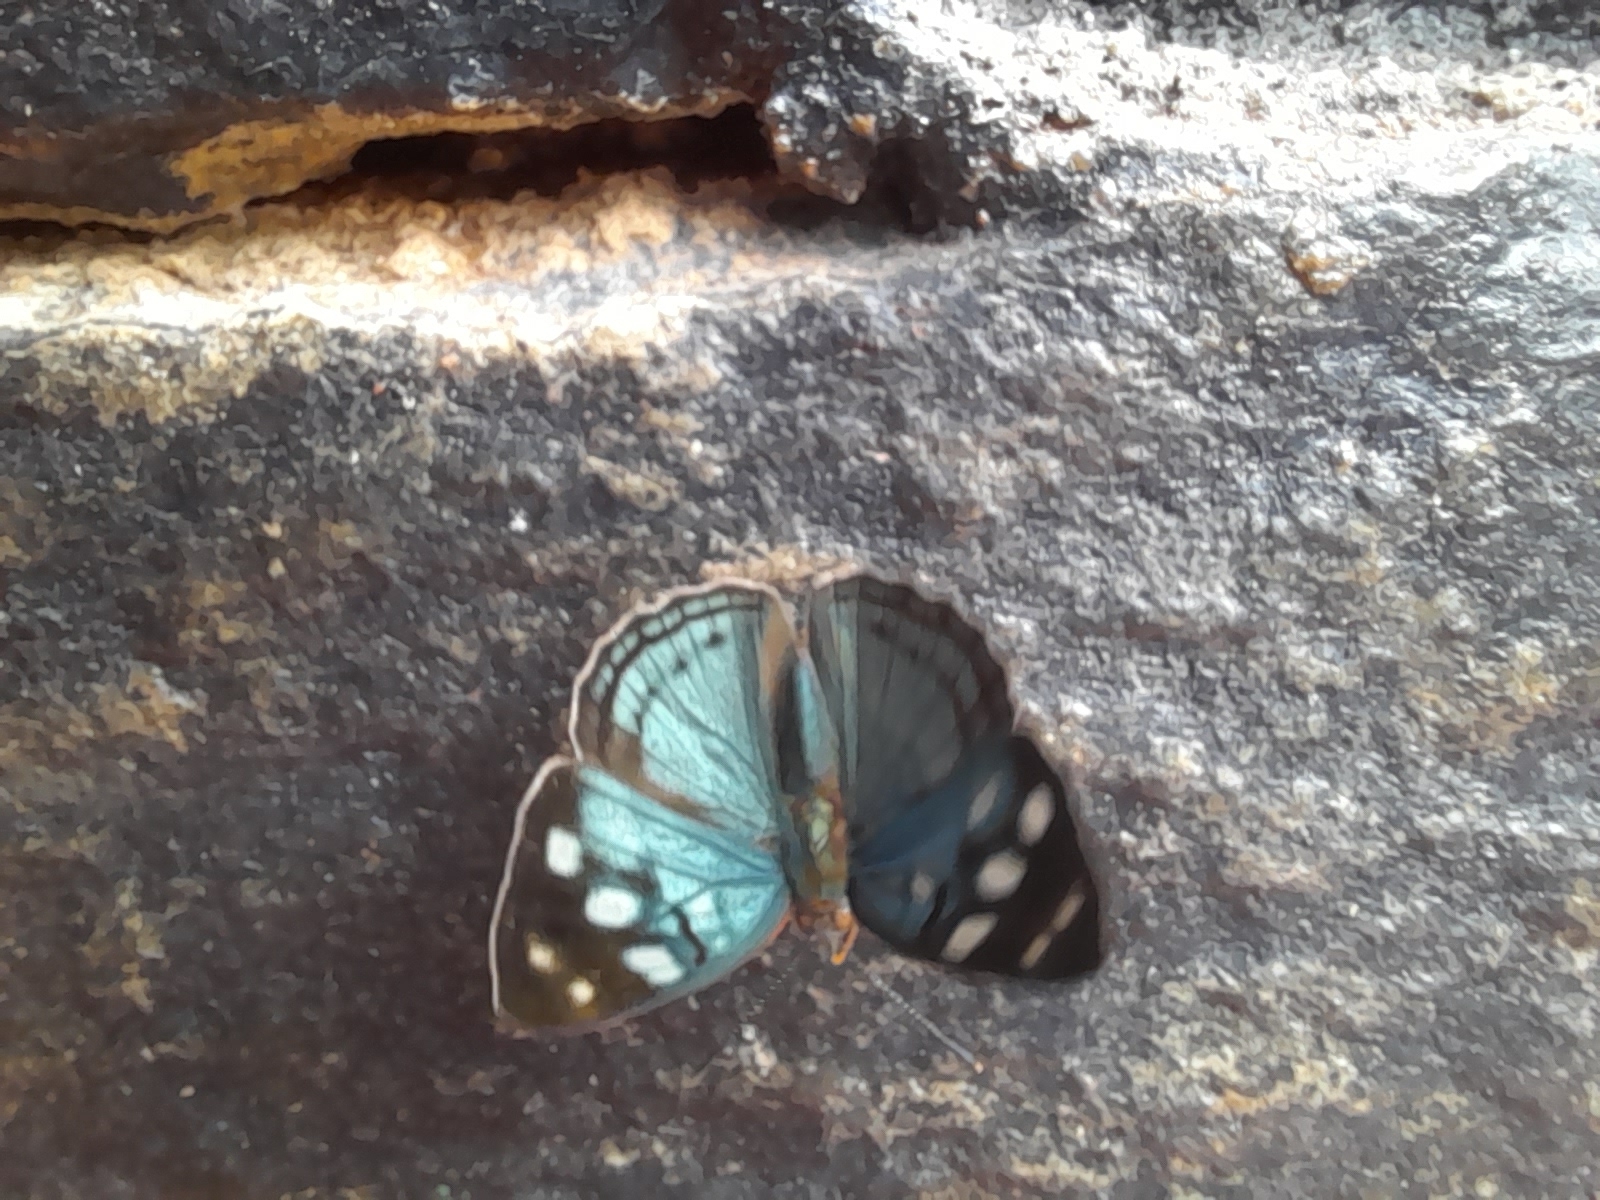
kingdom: Animalia
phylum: Arthropoda
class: Insecta
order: Lepidoptera
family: Nymphalidae
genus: Dynamine
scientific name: Dynamine tithia
